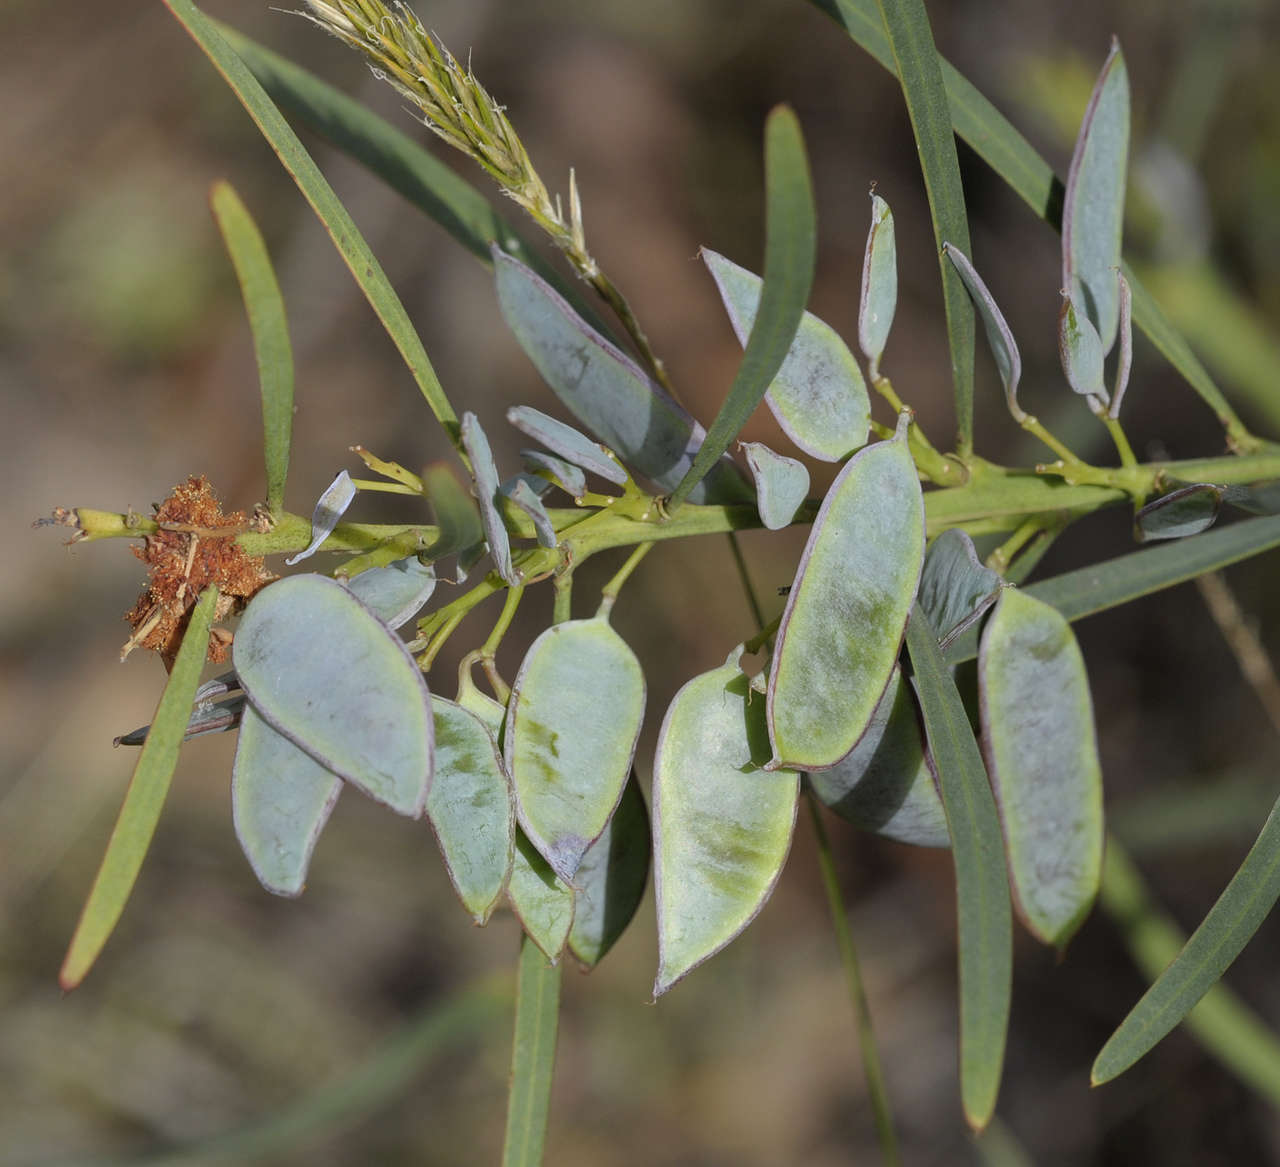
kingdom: Plantae
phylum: Tracheophyta
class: Magnoliopsida
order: Fabales
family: Fabaceae
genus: Acacia
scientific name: Acacia suaveolens
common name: Sweet acacia
